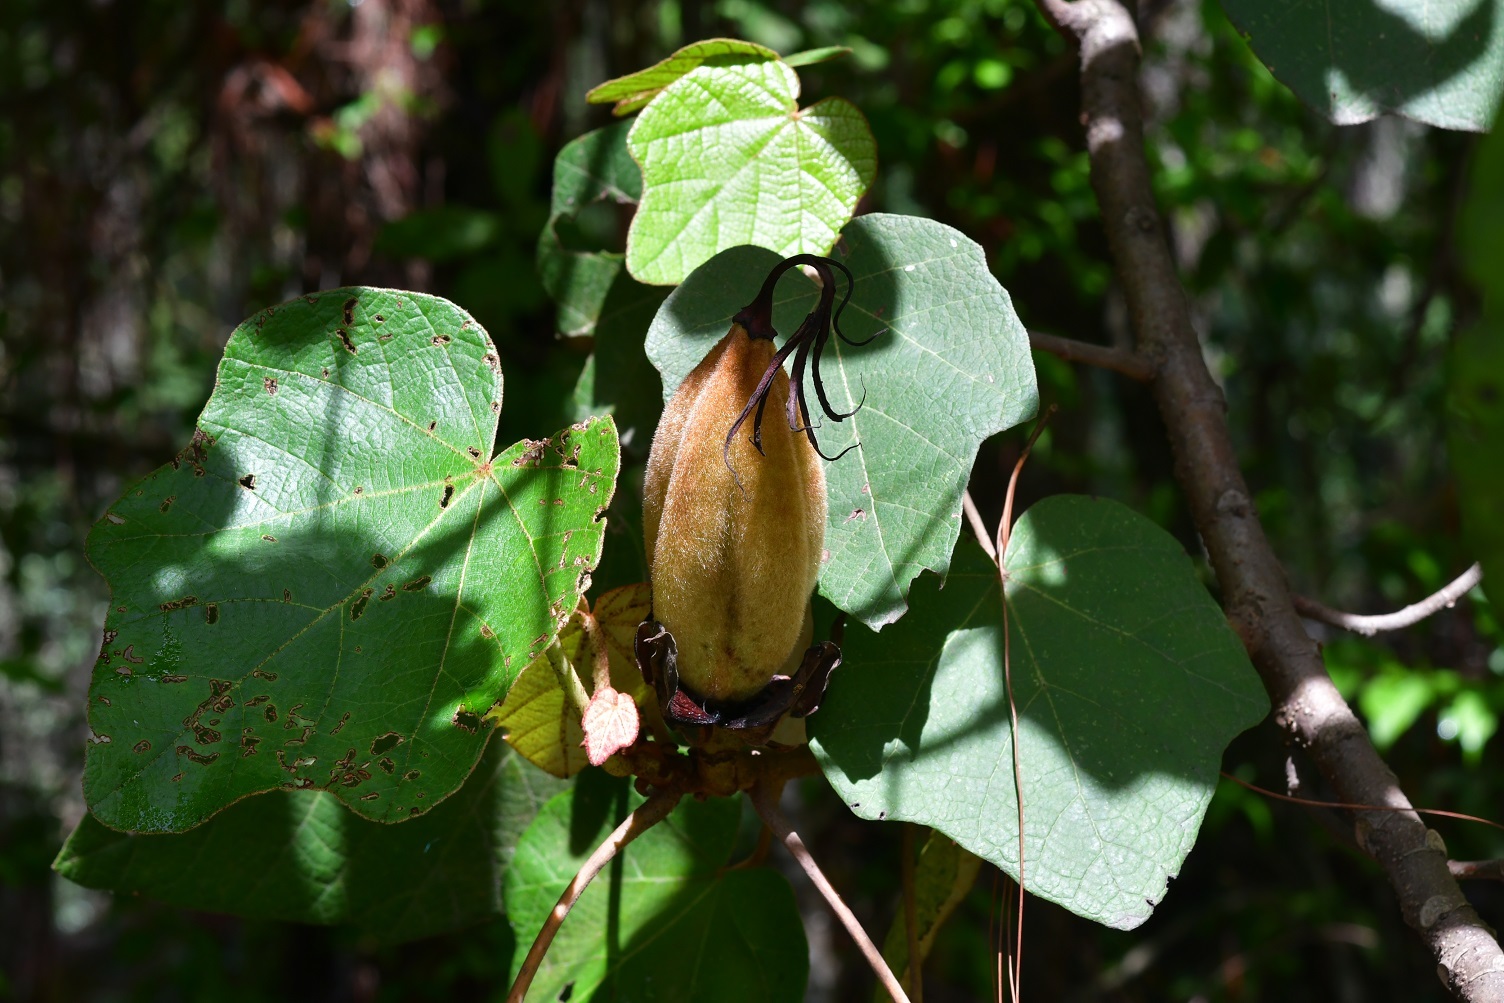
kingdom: Plantae
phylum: Tracheophyta
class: Magnoliopsida
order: Malvales
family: Malvaceae
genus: Chiranthodendron
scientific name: Chiranthodendron pentadactylon
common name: Mexican-hat-plant
